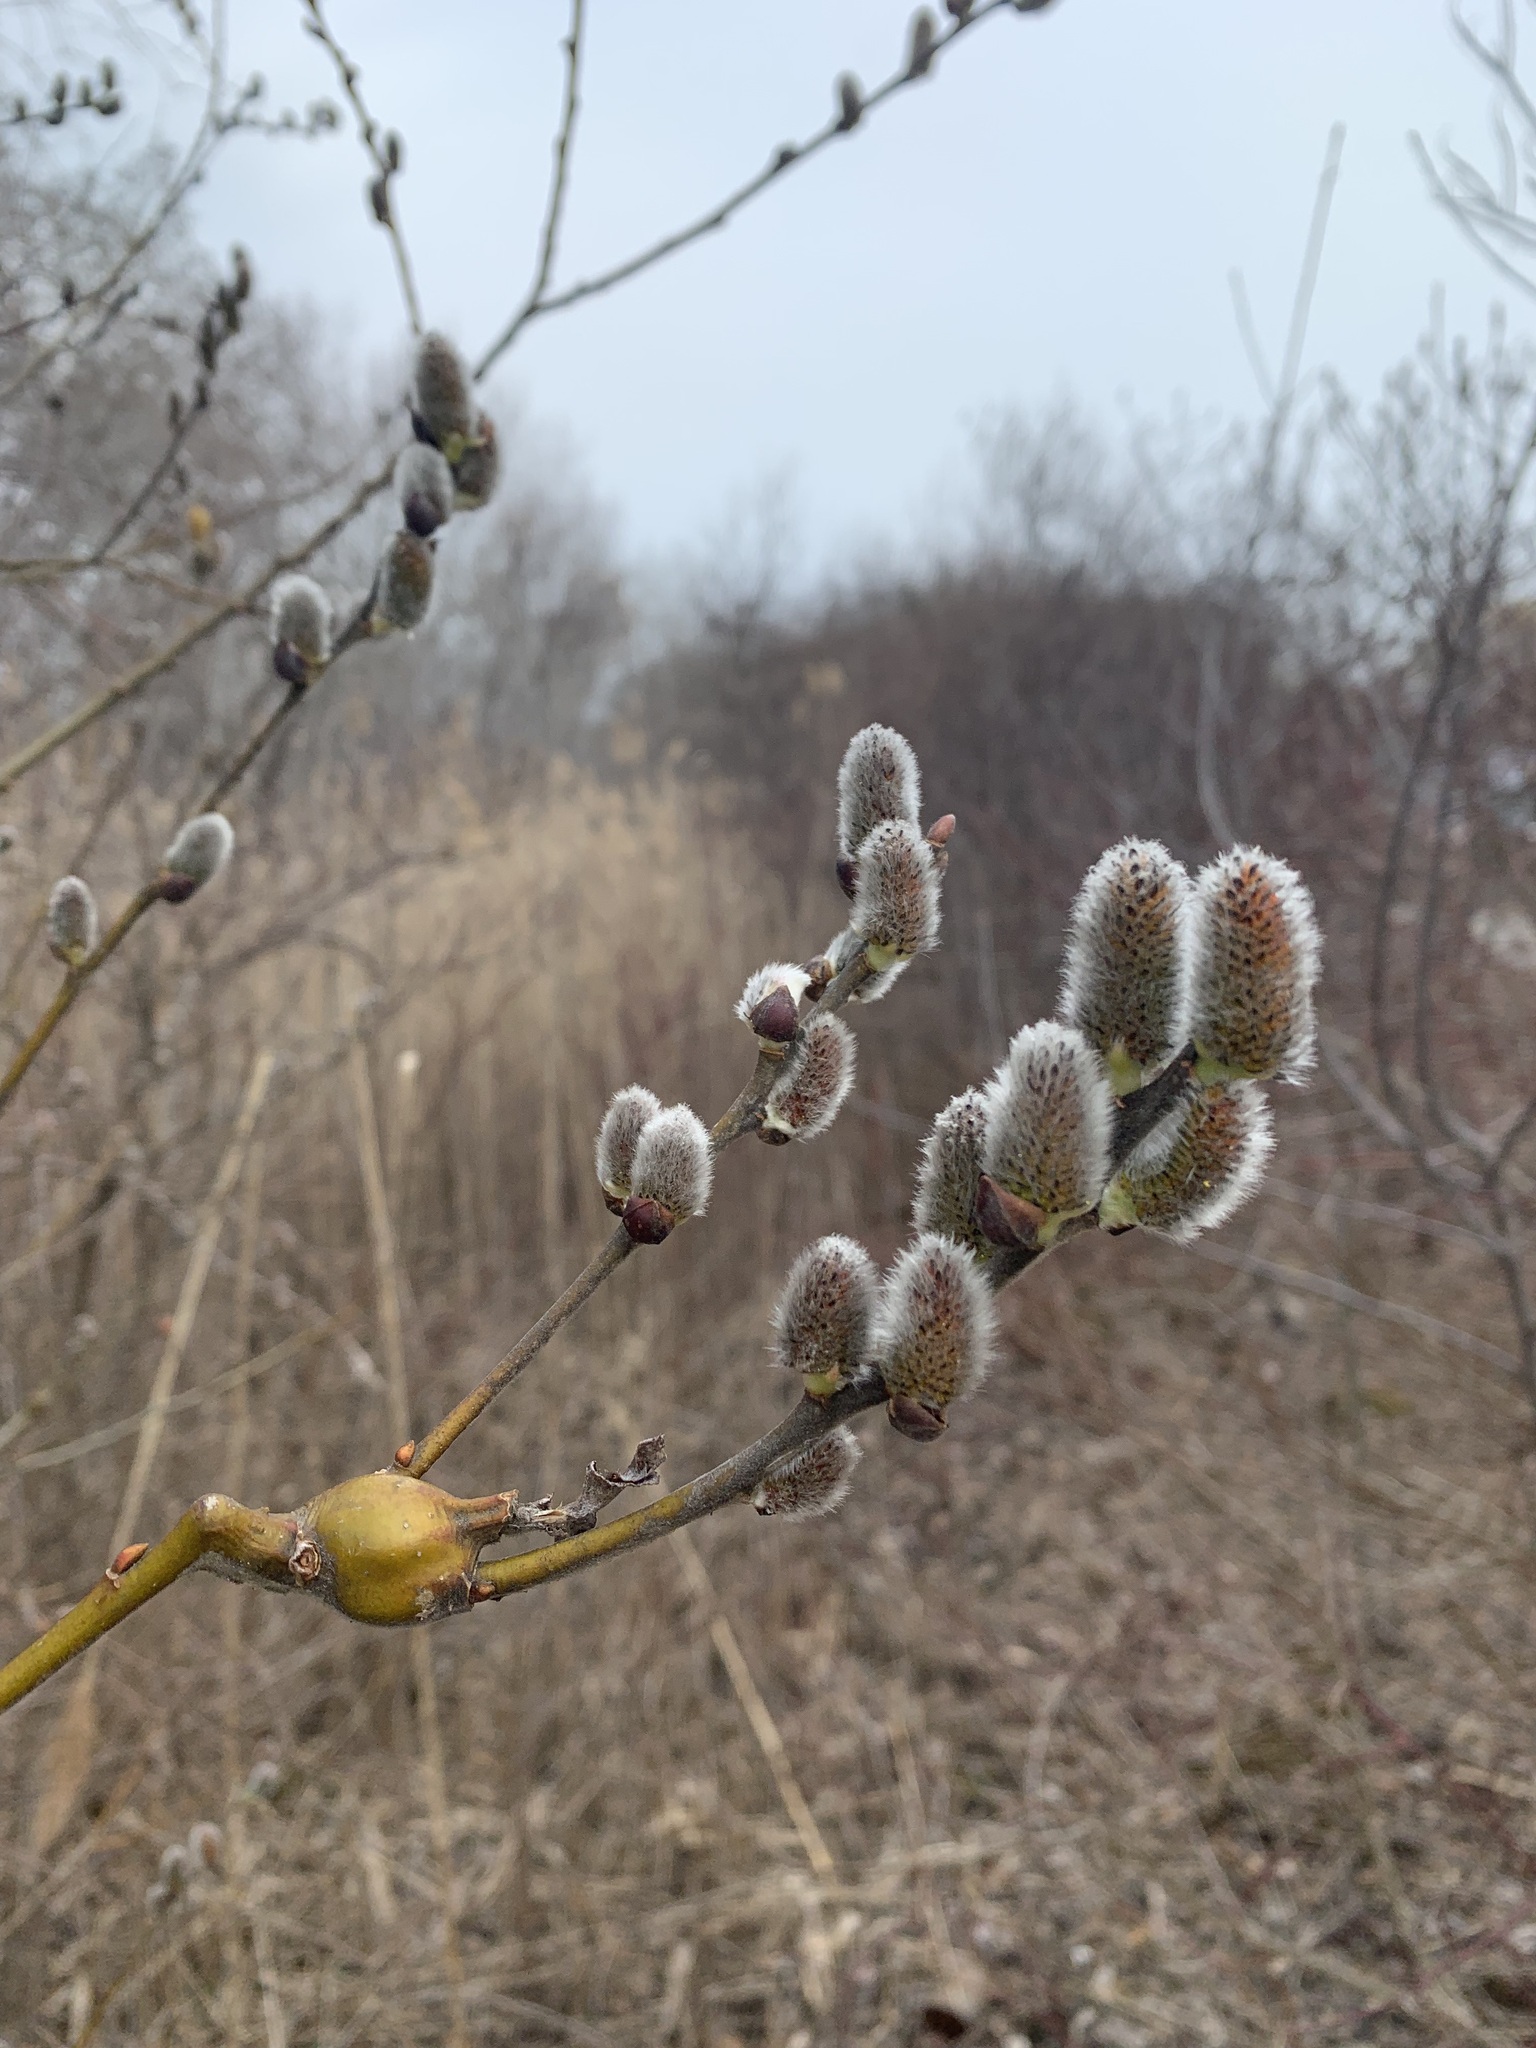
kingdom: Animalia
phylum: Arthropoda
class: Insecta
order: Diptera
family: Cecidomyiidae
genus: Thecodiplosis
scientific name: Thecodiplosis pinirigidae
